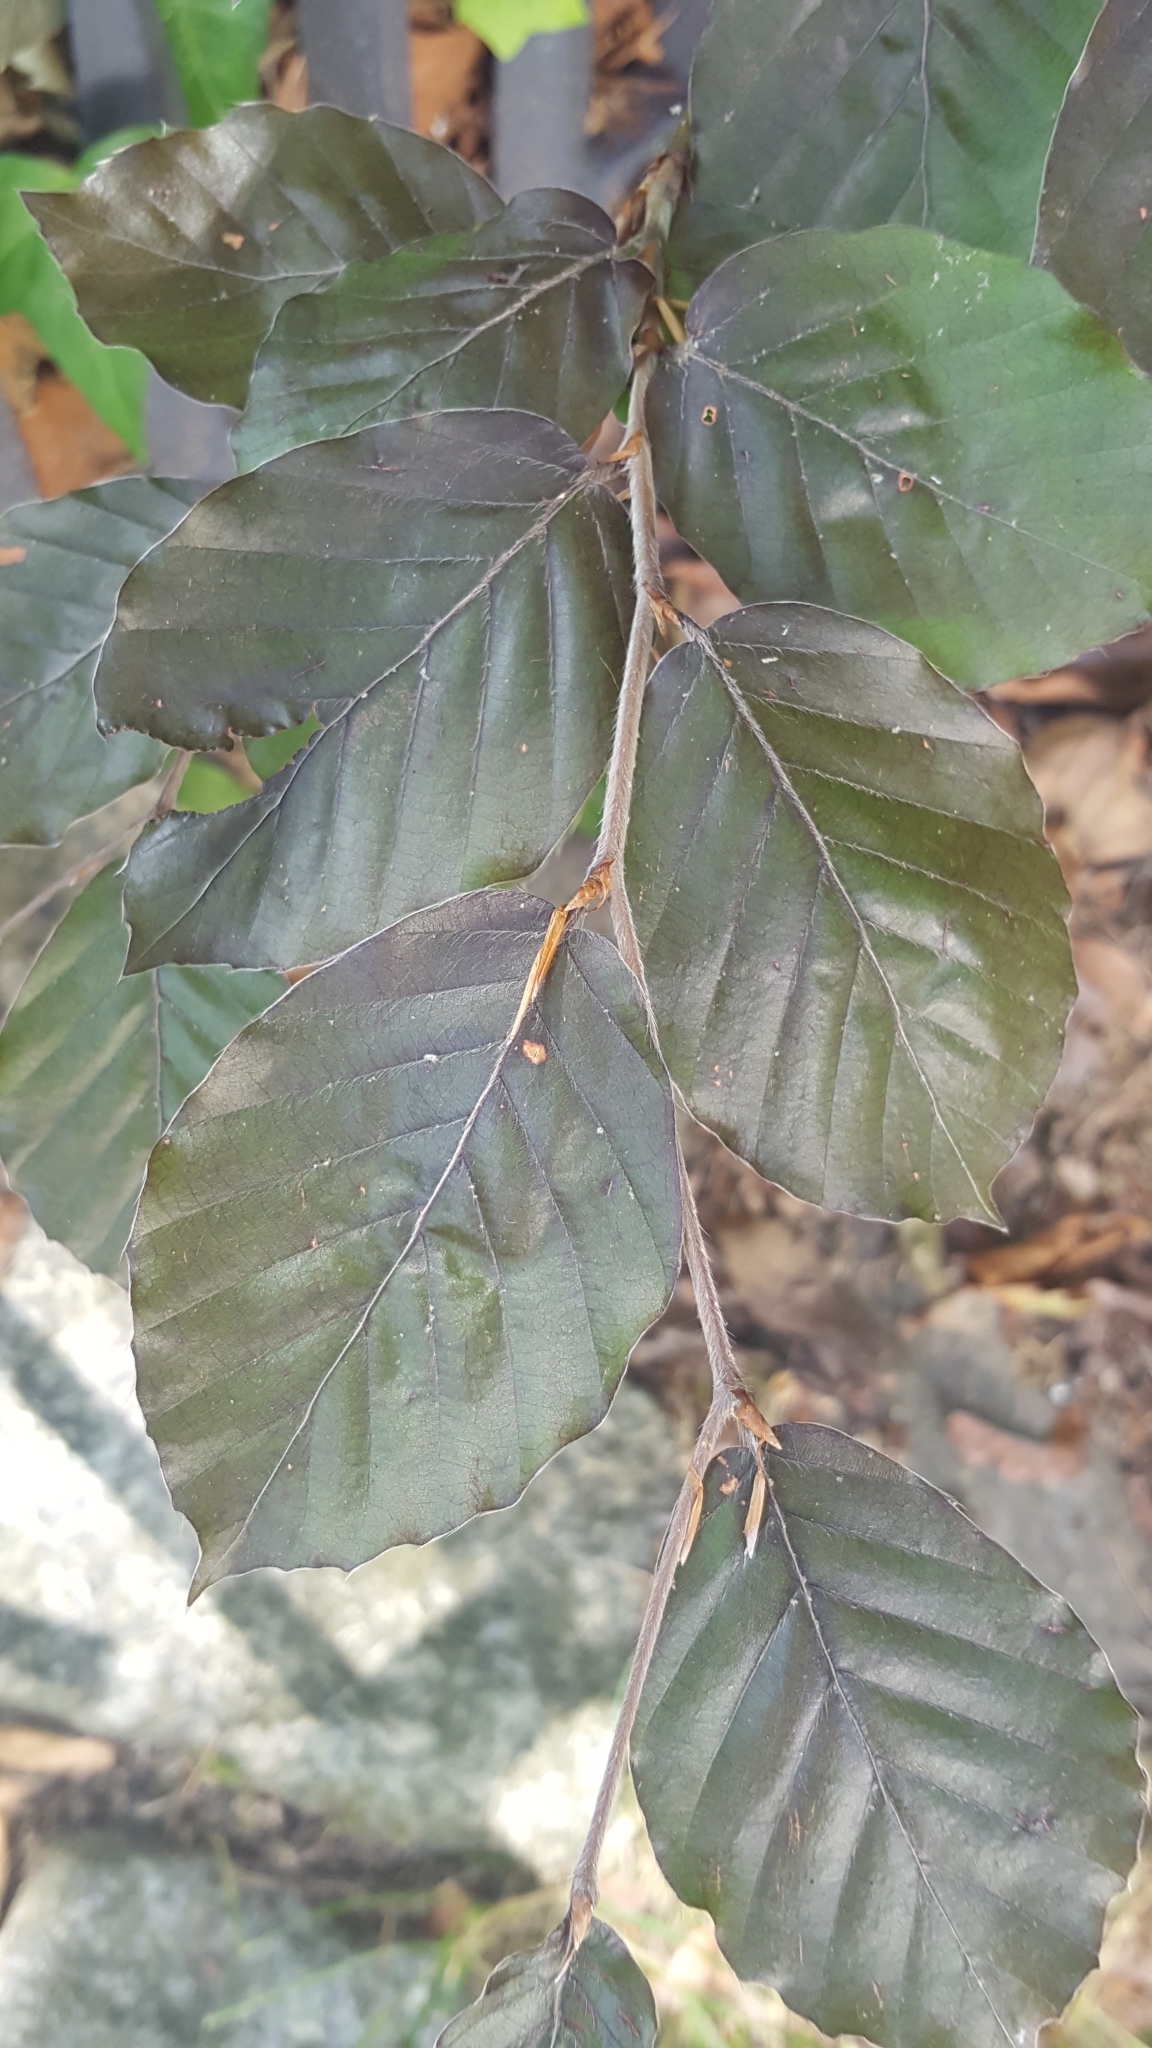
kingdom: Plantae
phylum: Tracheophyta
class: Magnoliopsida
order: Fagales
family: Fagaceae
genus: Fagus
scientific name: Fagus sylvatica
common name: Beech
